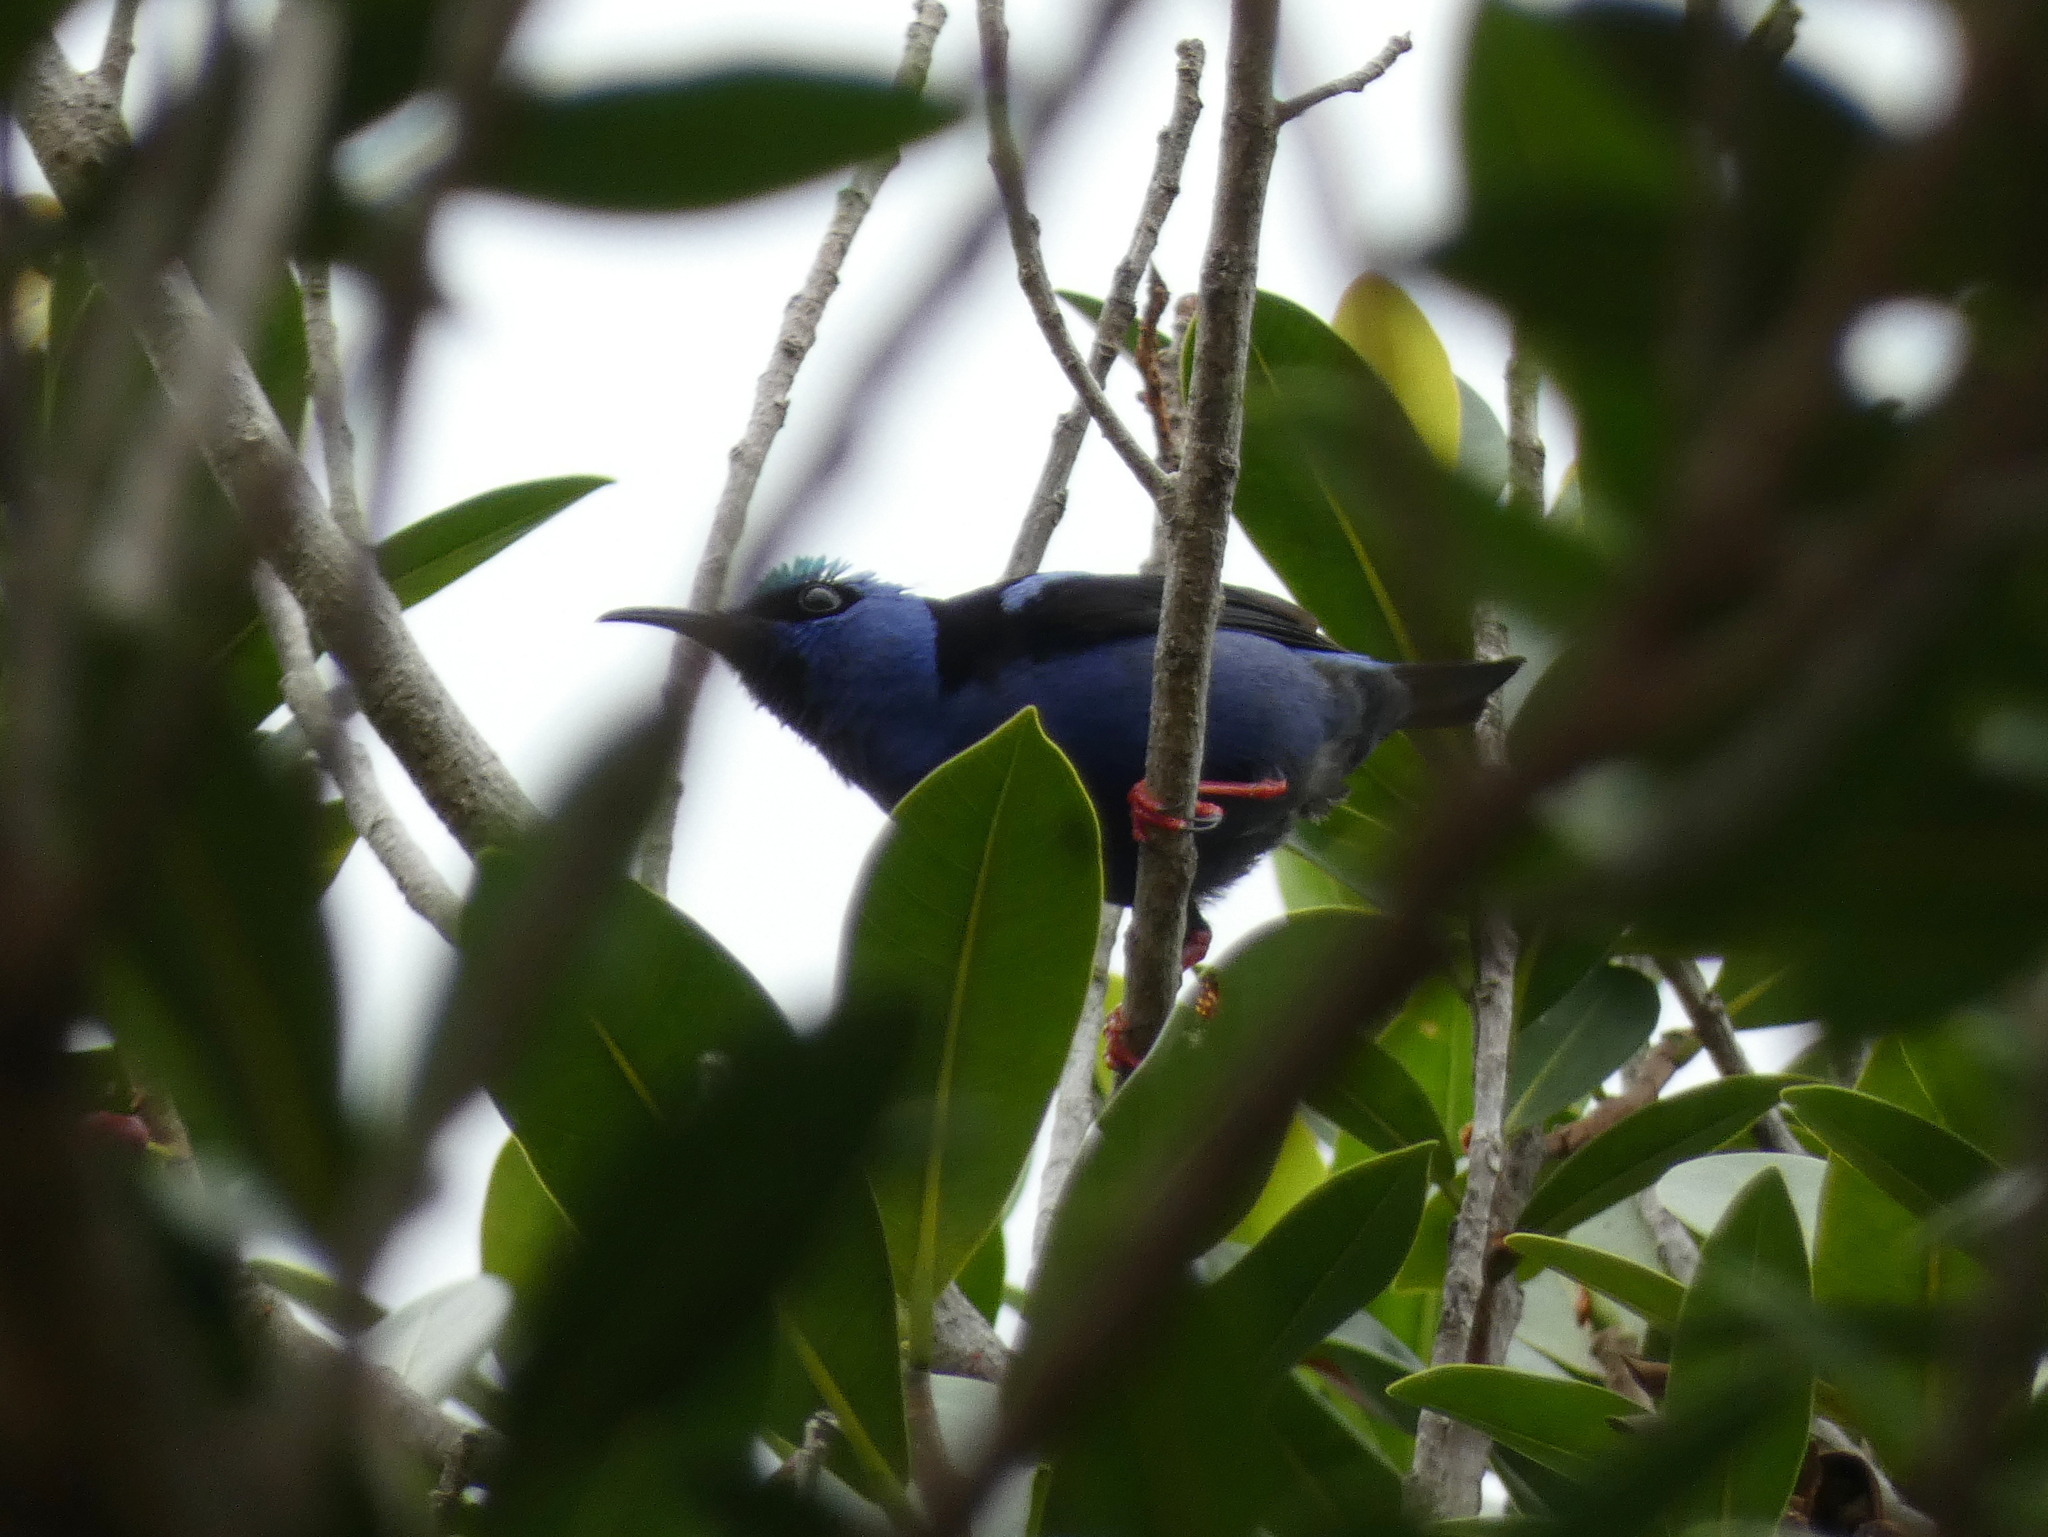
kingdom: Animalia
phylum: Chordata
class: Aves
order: Passeriformes
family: Thraupidae
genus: Cyanerpes
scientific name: Cyanerpes cyaneus
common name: Red-legged honeycreeper
